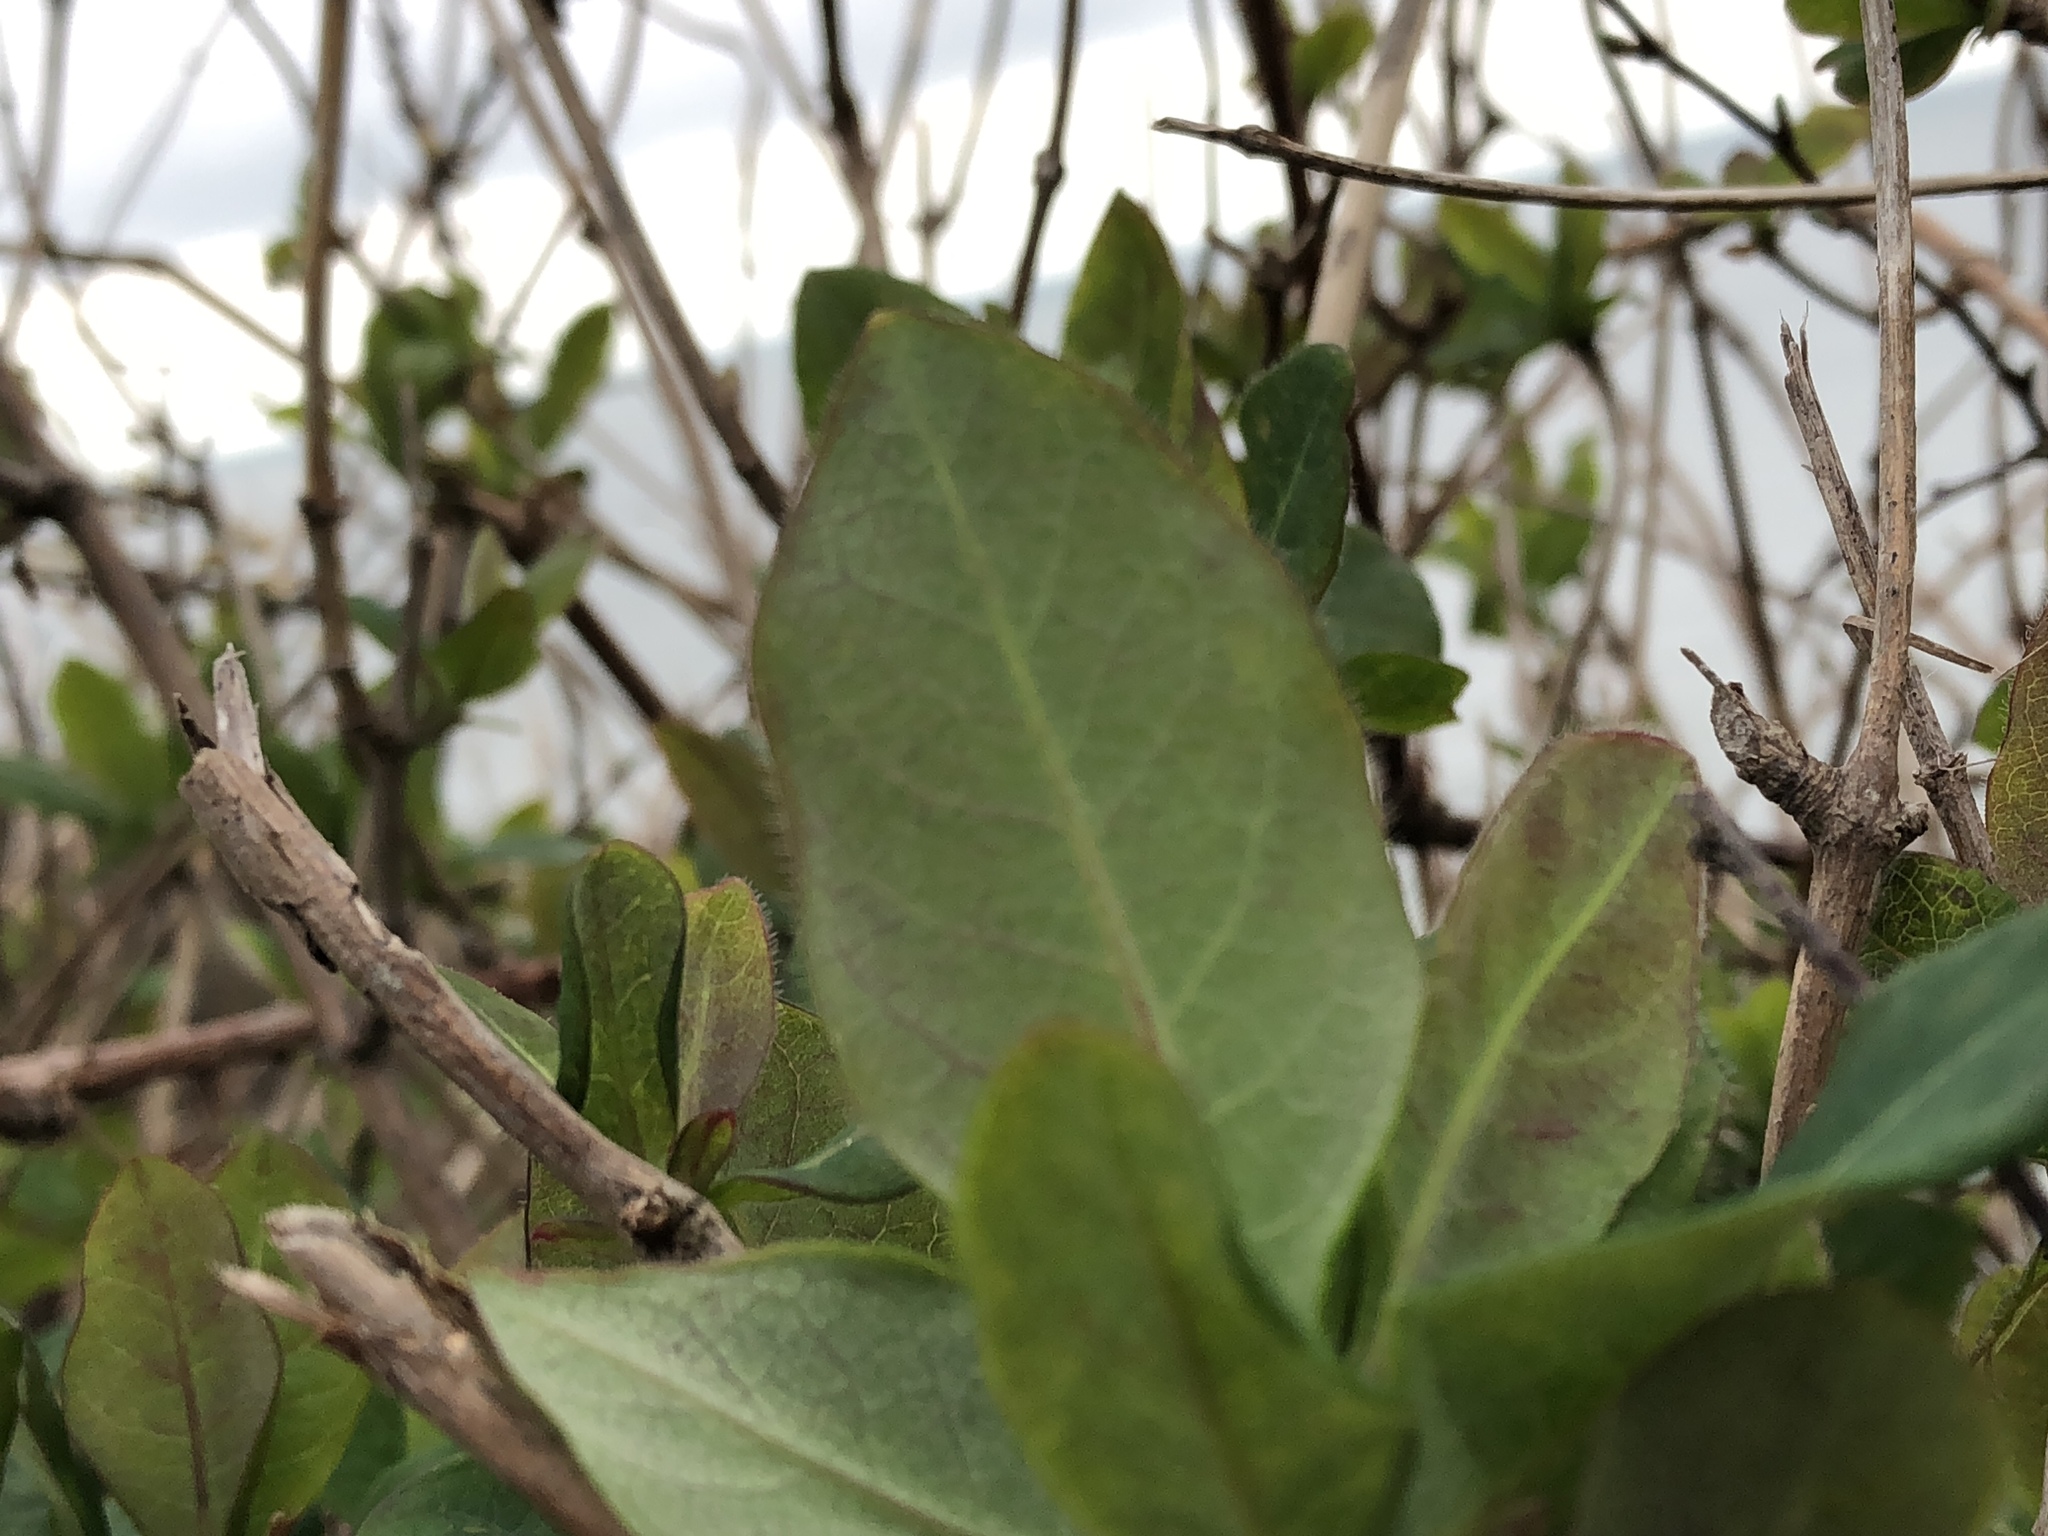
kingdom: Plantae
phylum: Tracheophyta
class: Magnoliopsida
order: Rosales
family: Rosaceae
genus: Prunus
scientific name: Prunus spinosa
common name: Blackthorn
